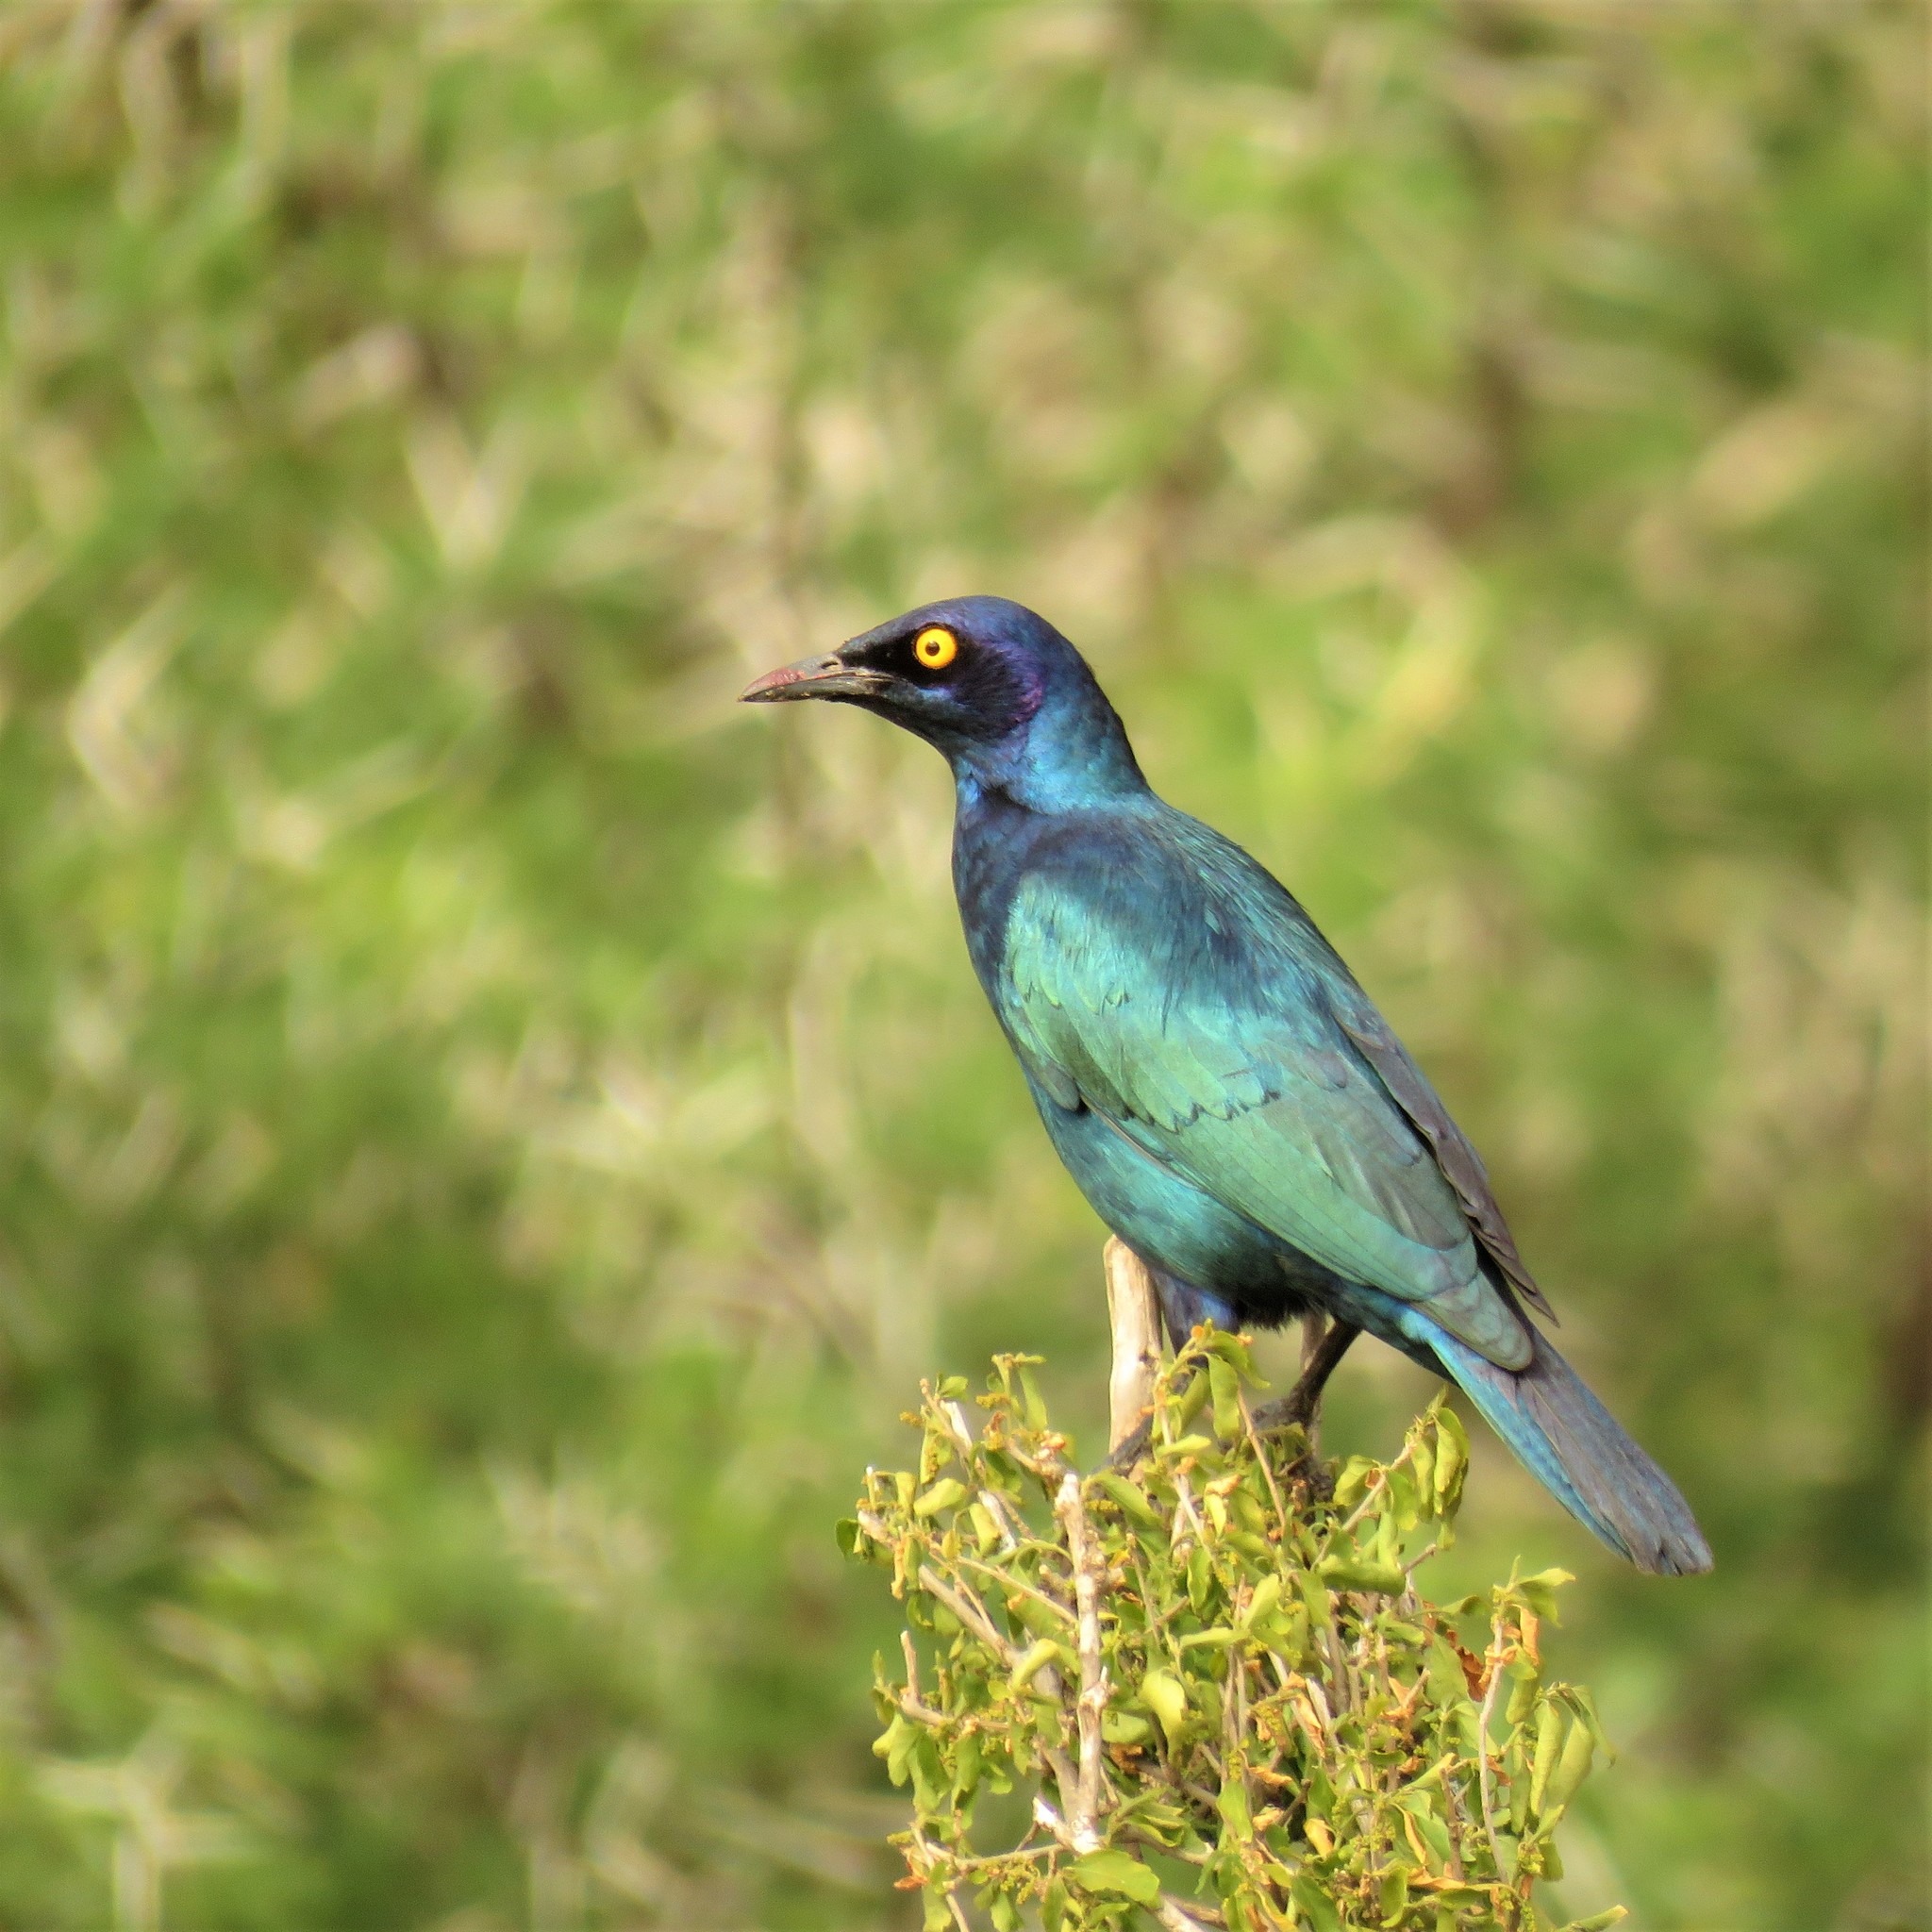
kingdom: Animalia
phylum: Chordata
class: Aves
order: Passeriformes
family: Sturnidae
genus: Lamprotornis
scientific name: Lamprotornis nitens
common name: Cape starling
